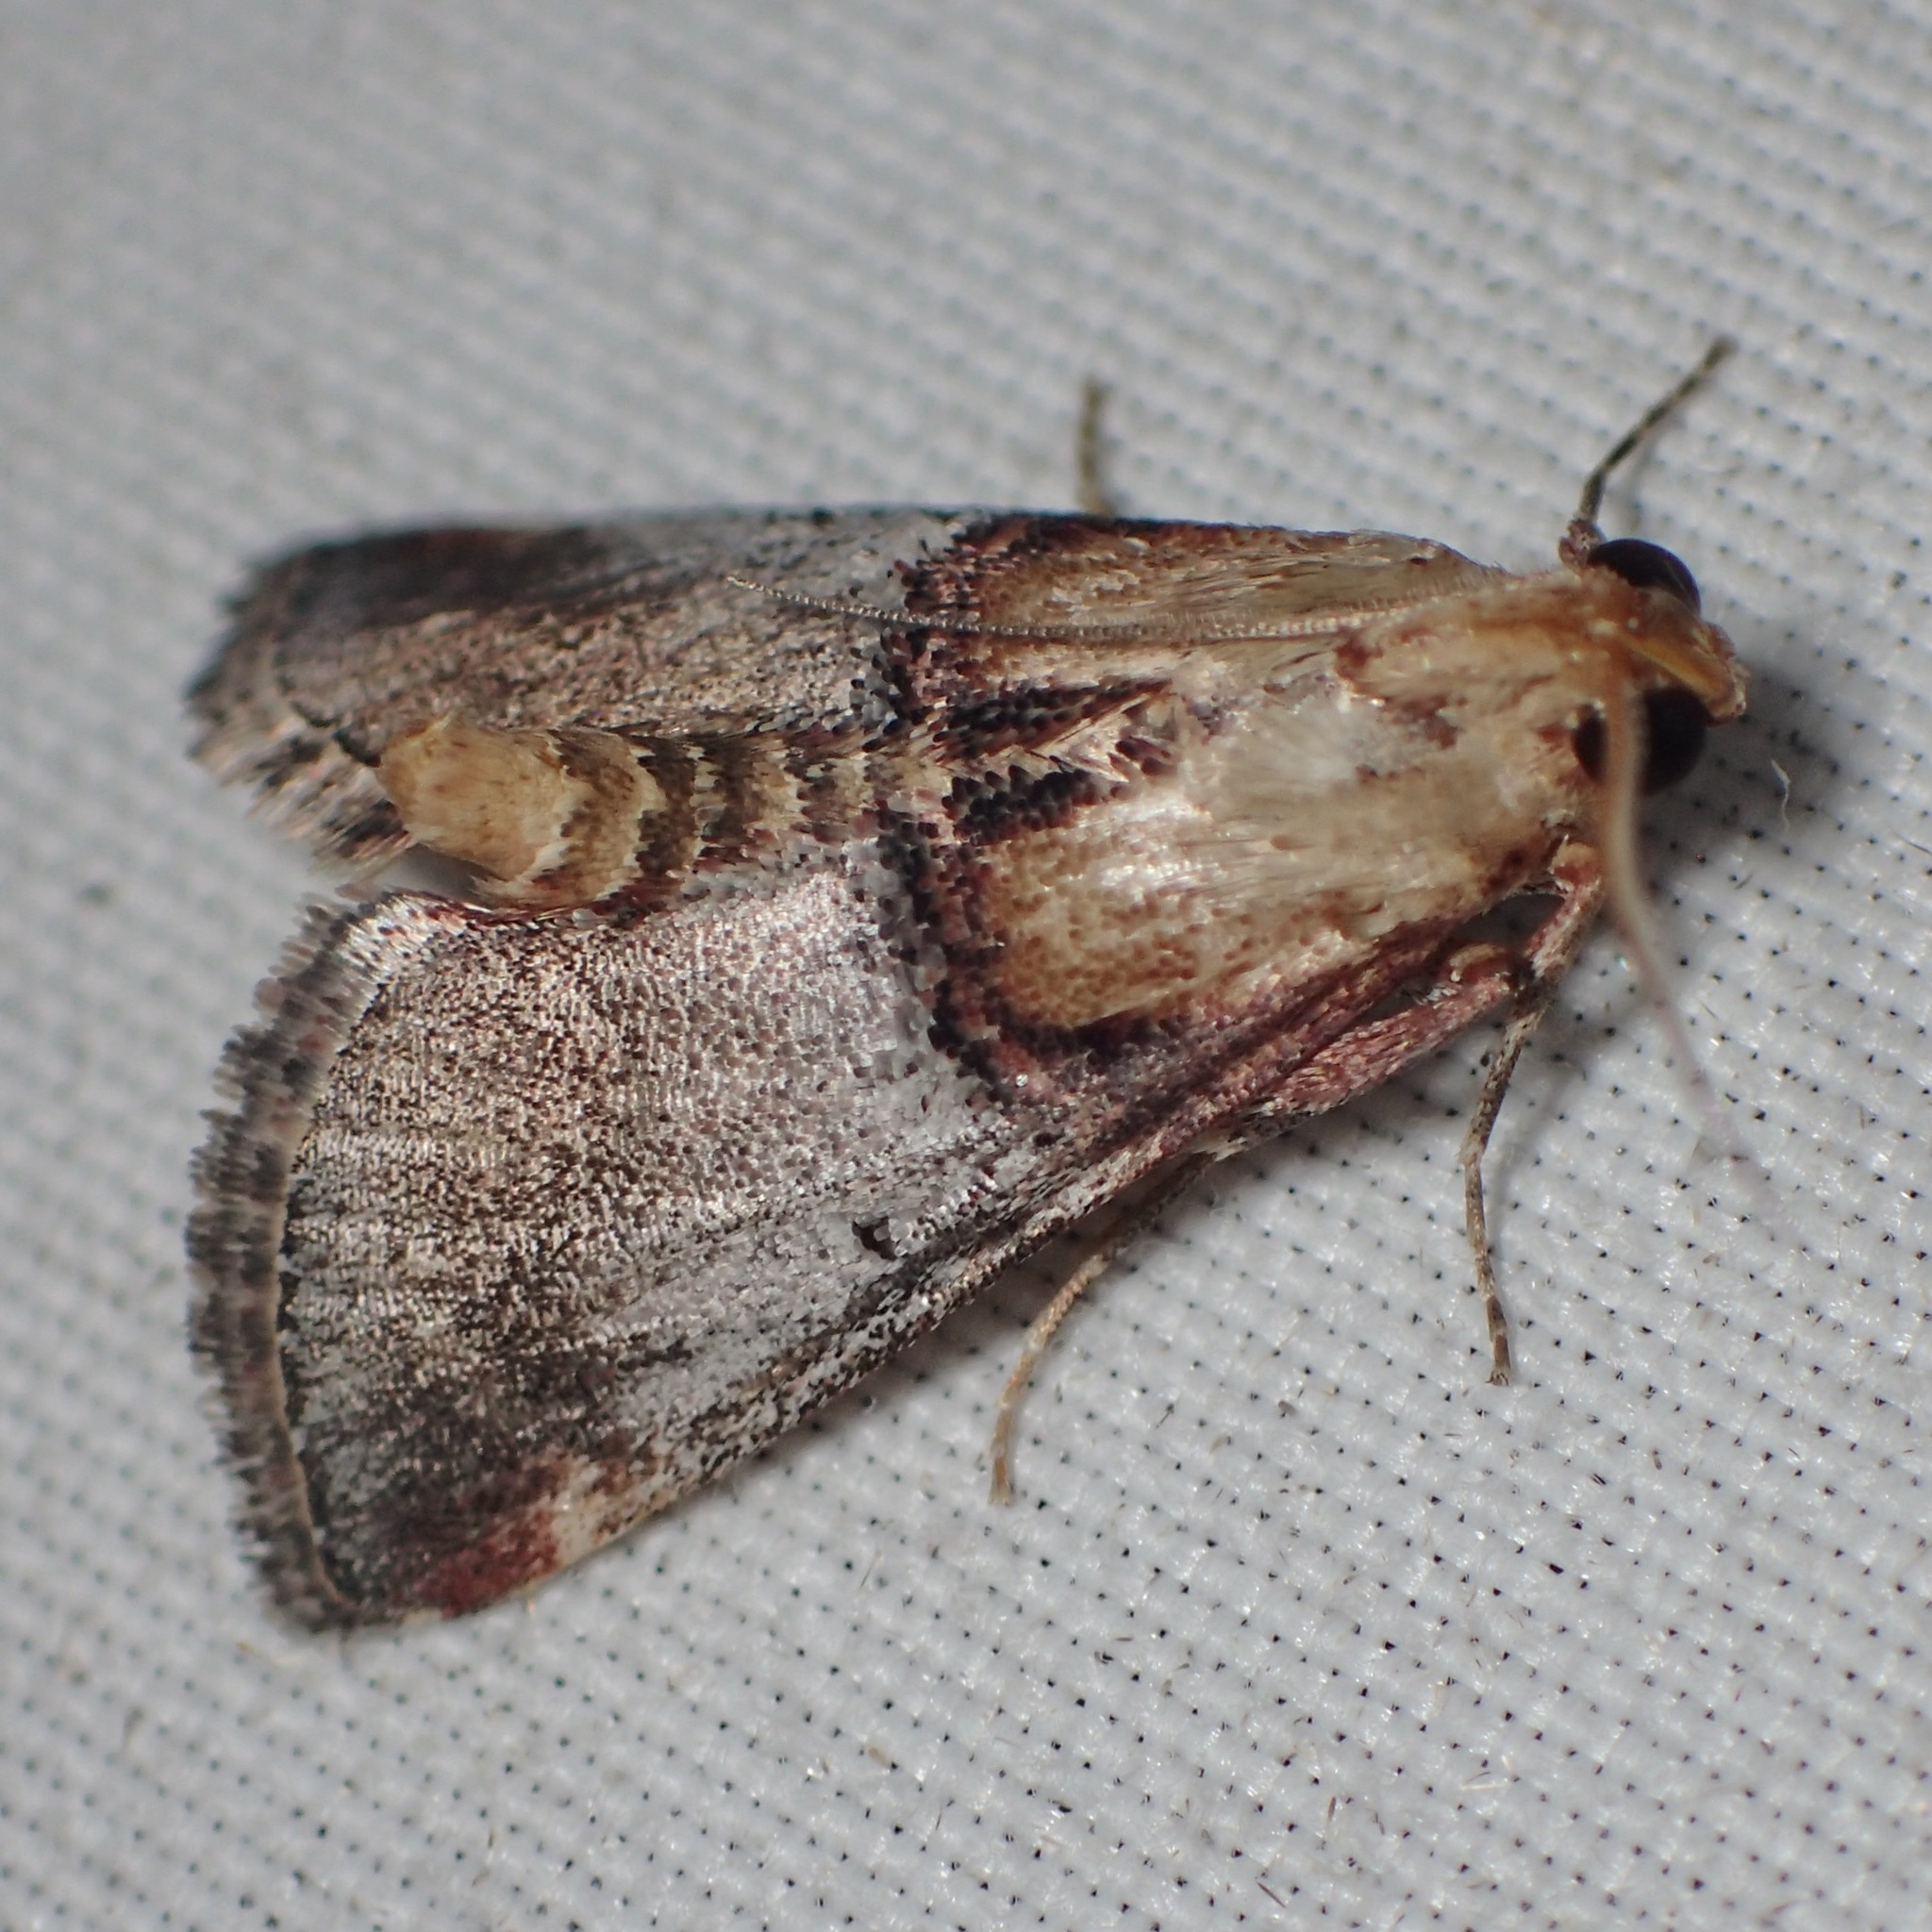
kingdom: Animalia
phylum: Arthropoda
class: Insecta
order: Lepidoptera
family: Pyralidae
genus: Cacozelia
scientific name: Cacozelia basiochrealis
